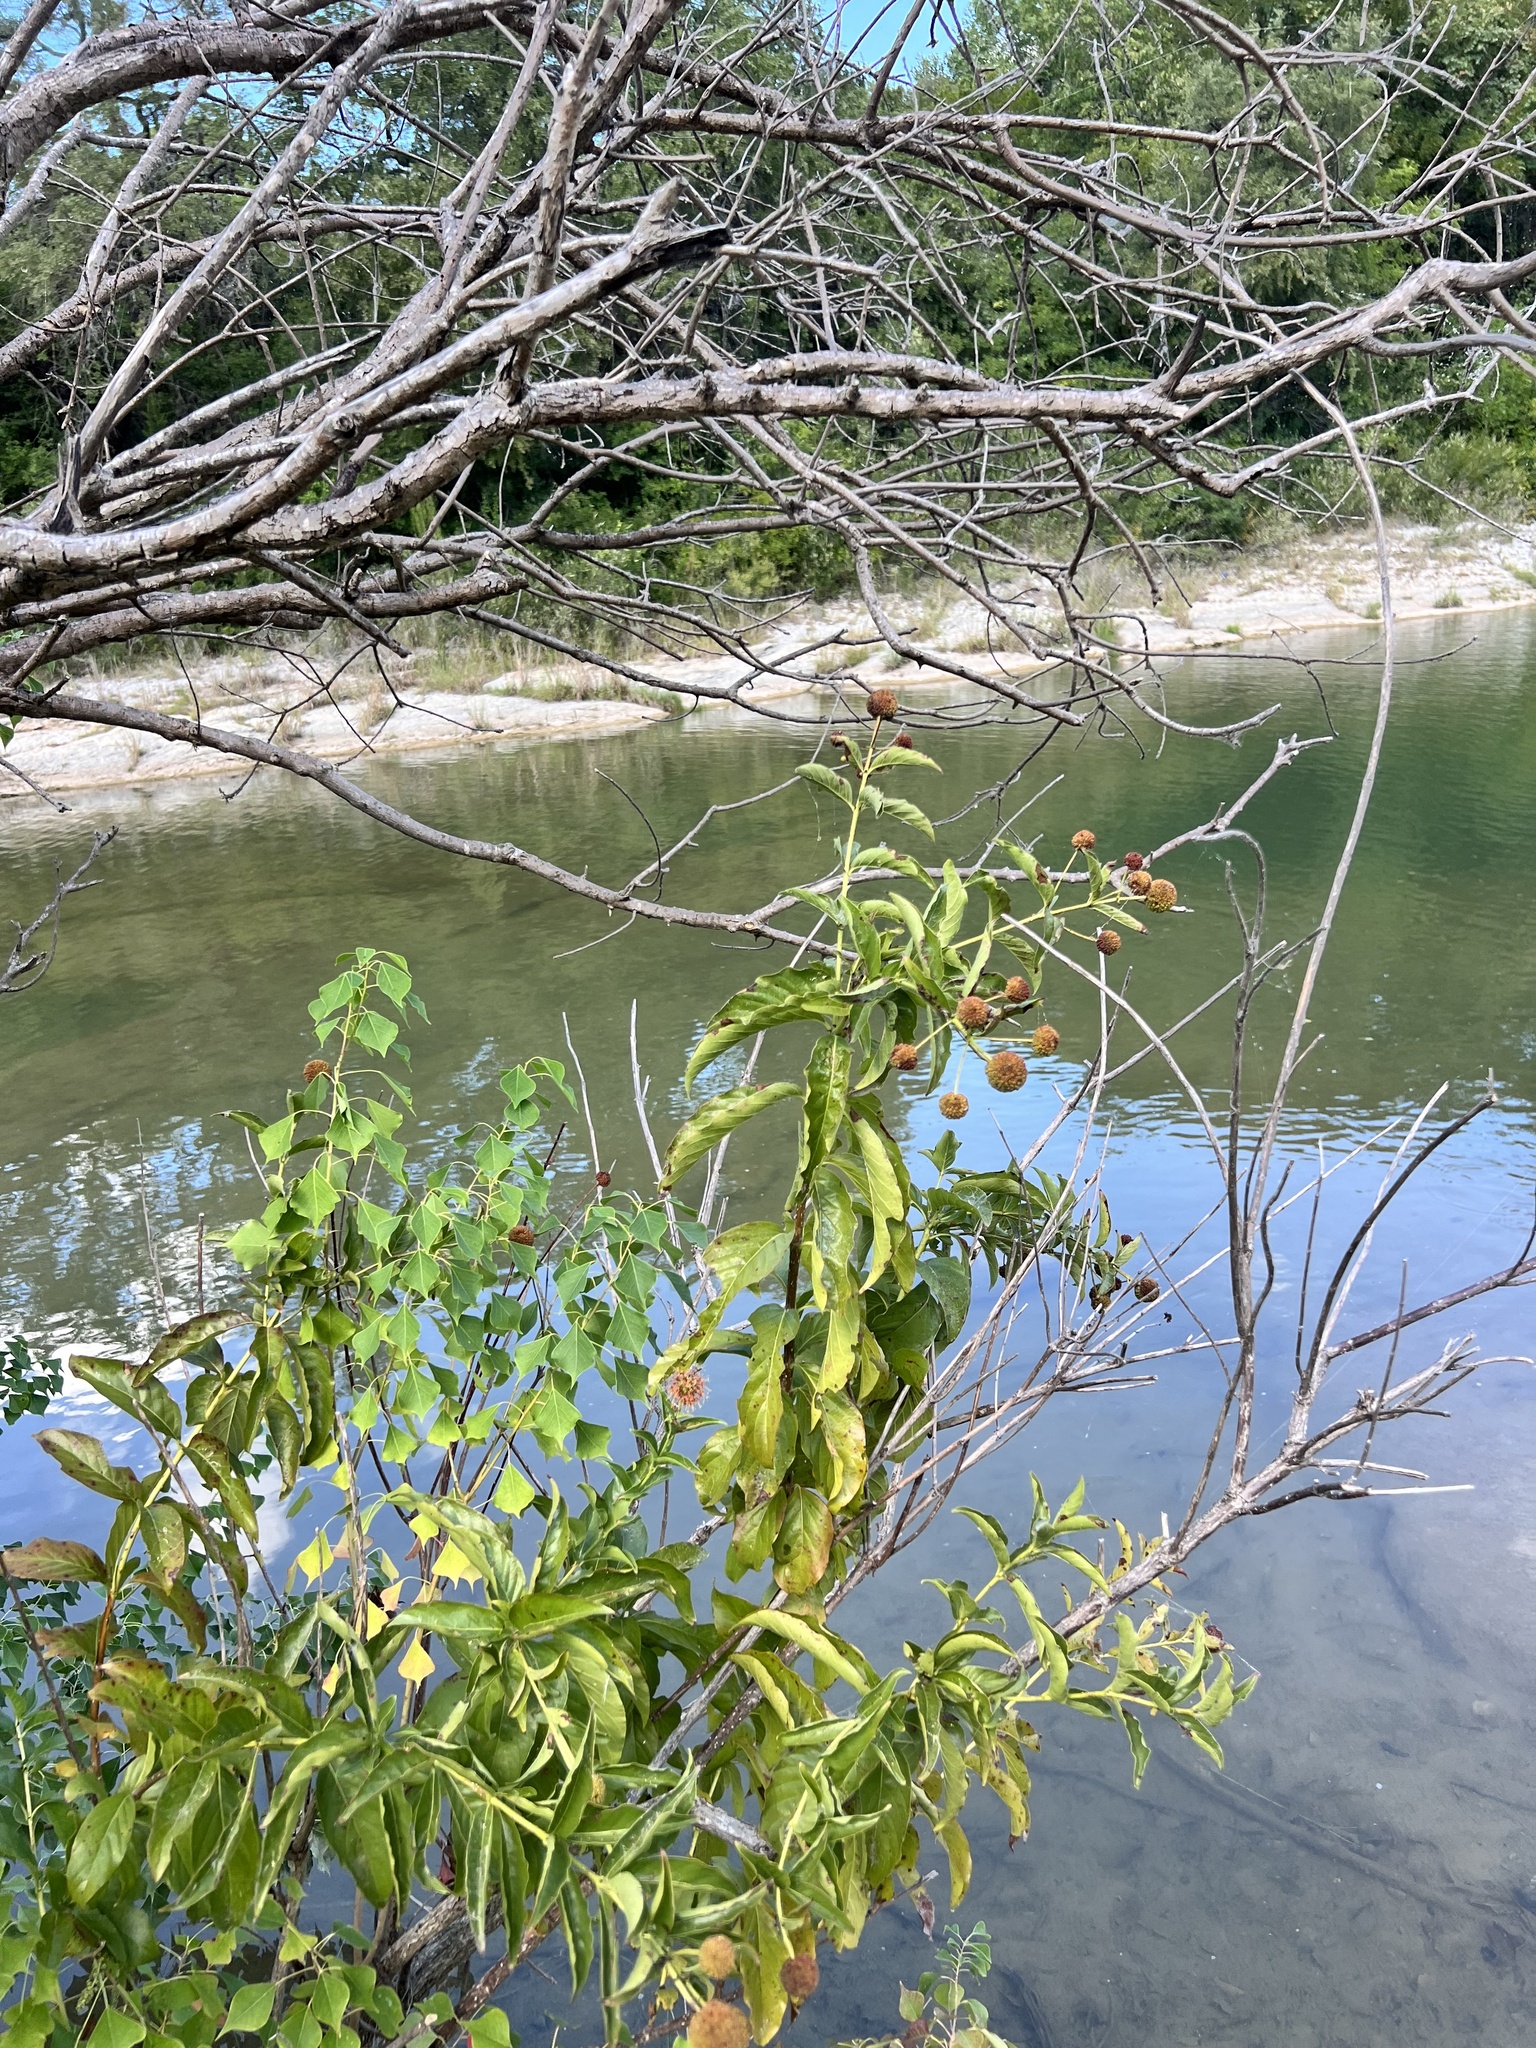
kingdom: Plantae
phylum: Tracheophyta
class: Magnoliopsida
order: Gentianales
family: Rubiaceae
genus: Cephalanthus
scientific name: Cephalanthus occidentalis
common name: Button-willow
